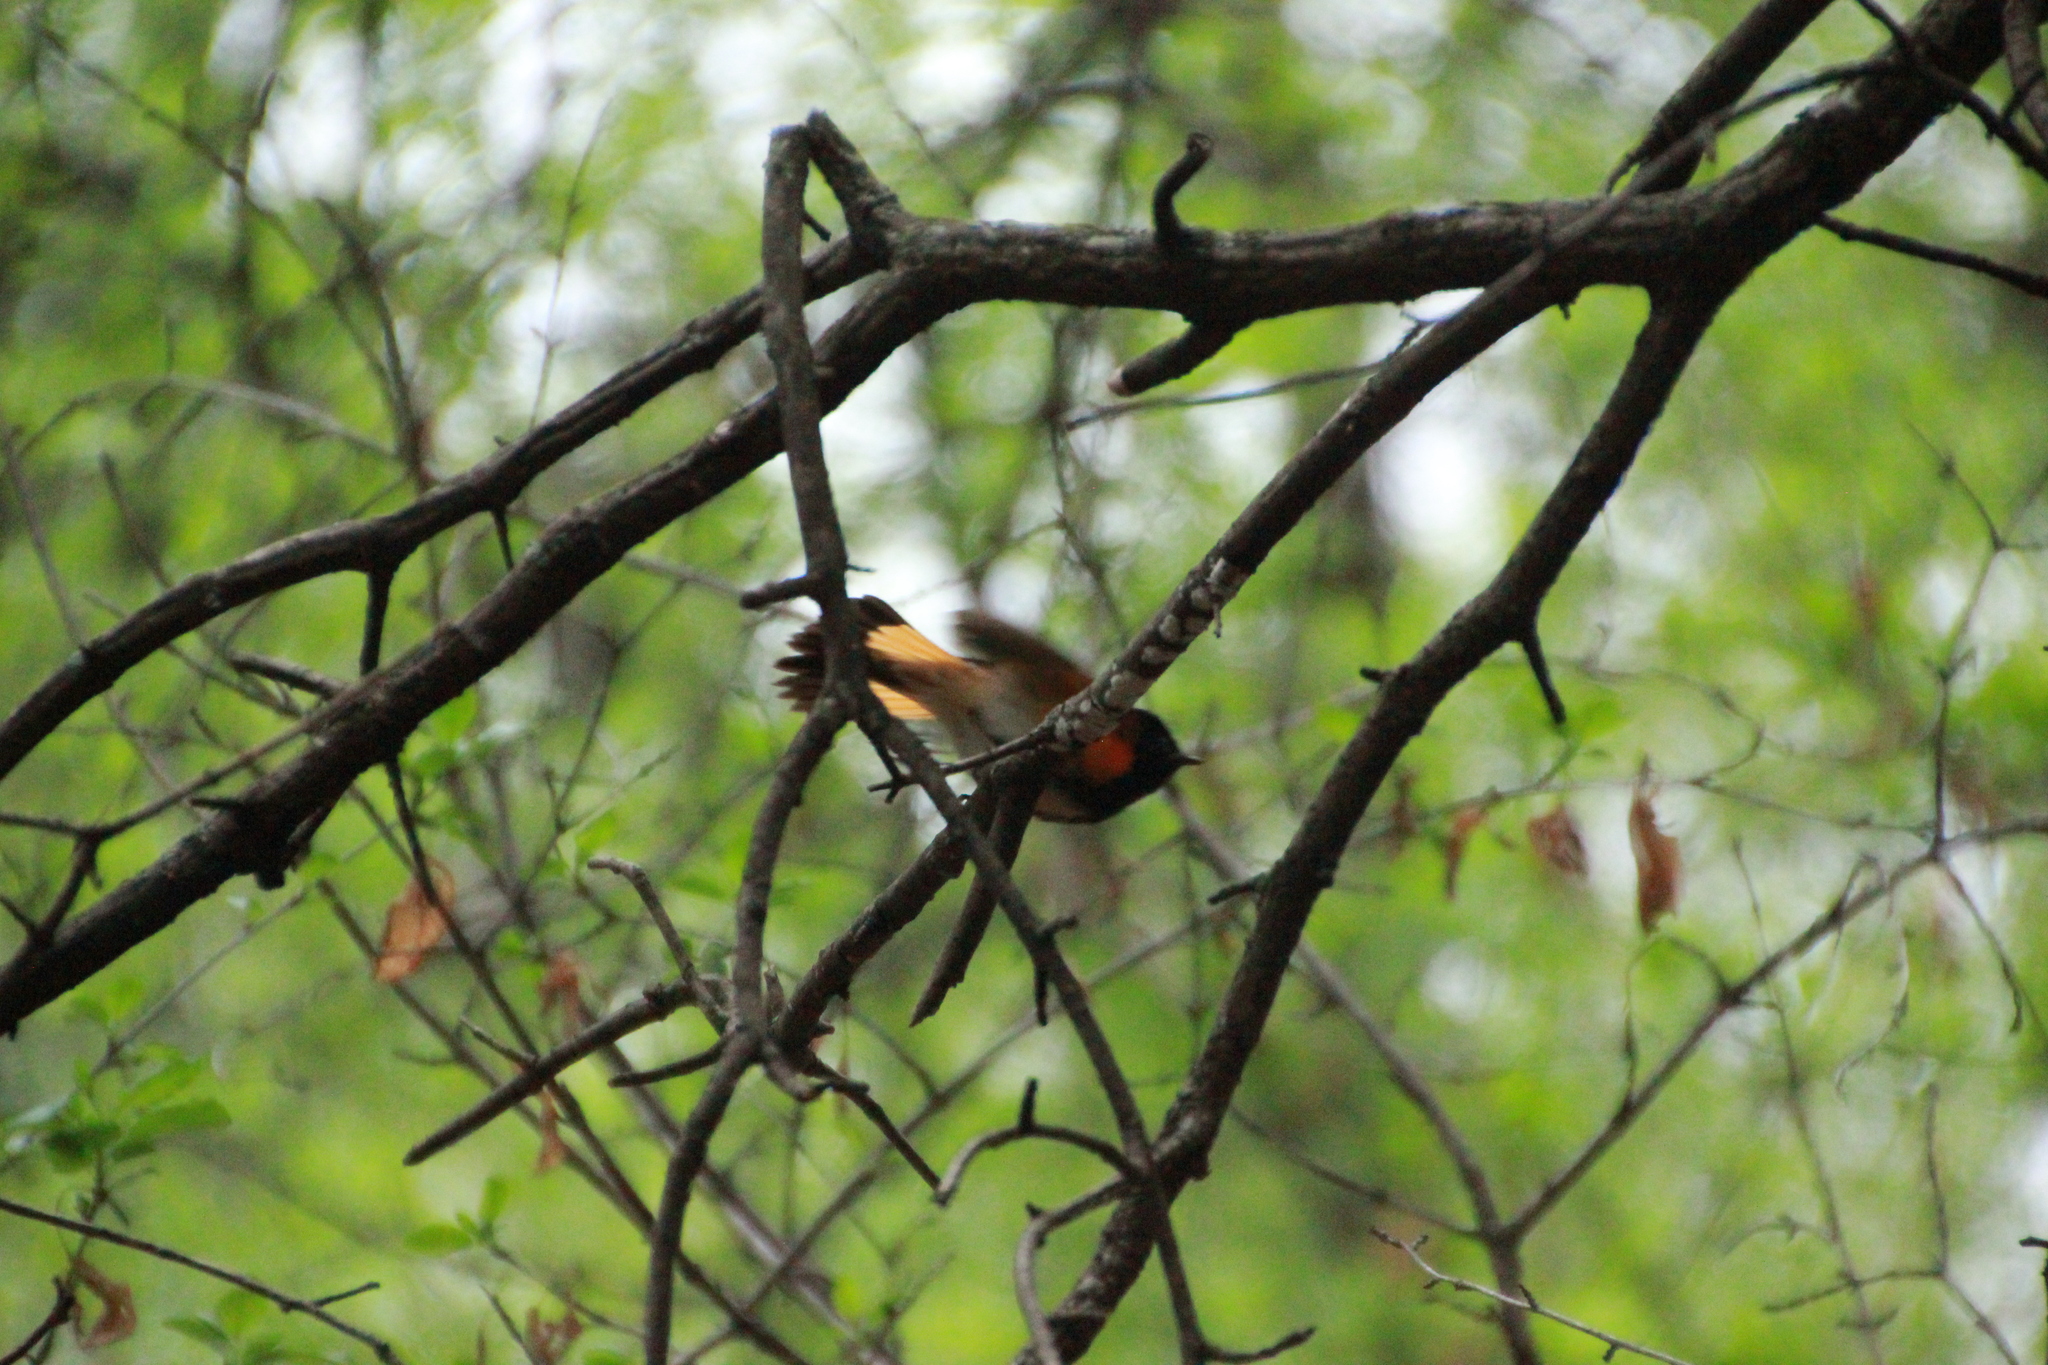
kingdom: Animalia
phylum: Chordata
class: Aves
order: Passeriformes
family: Parulidae
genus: Setophaga
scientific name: Setophaga ruticilla
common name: American redstart
